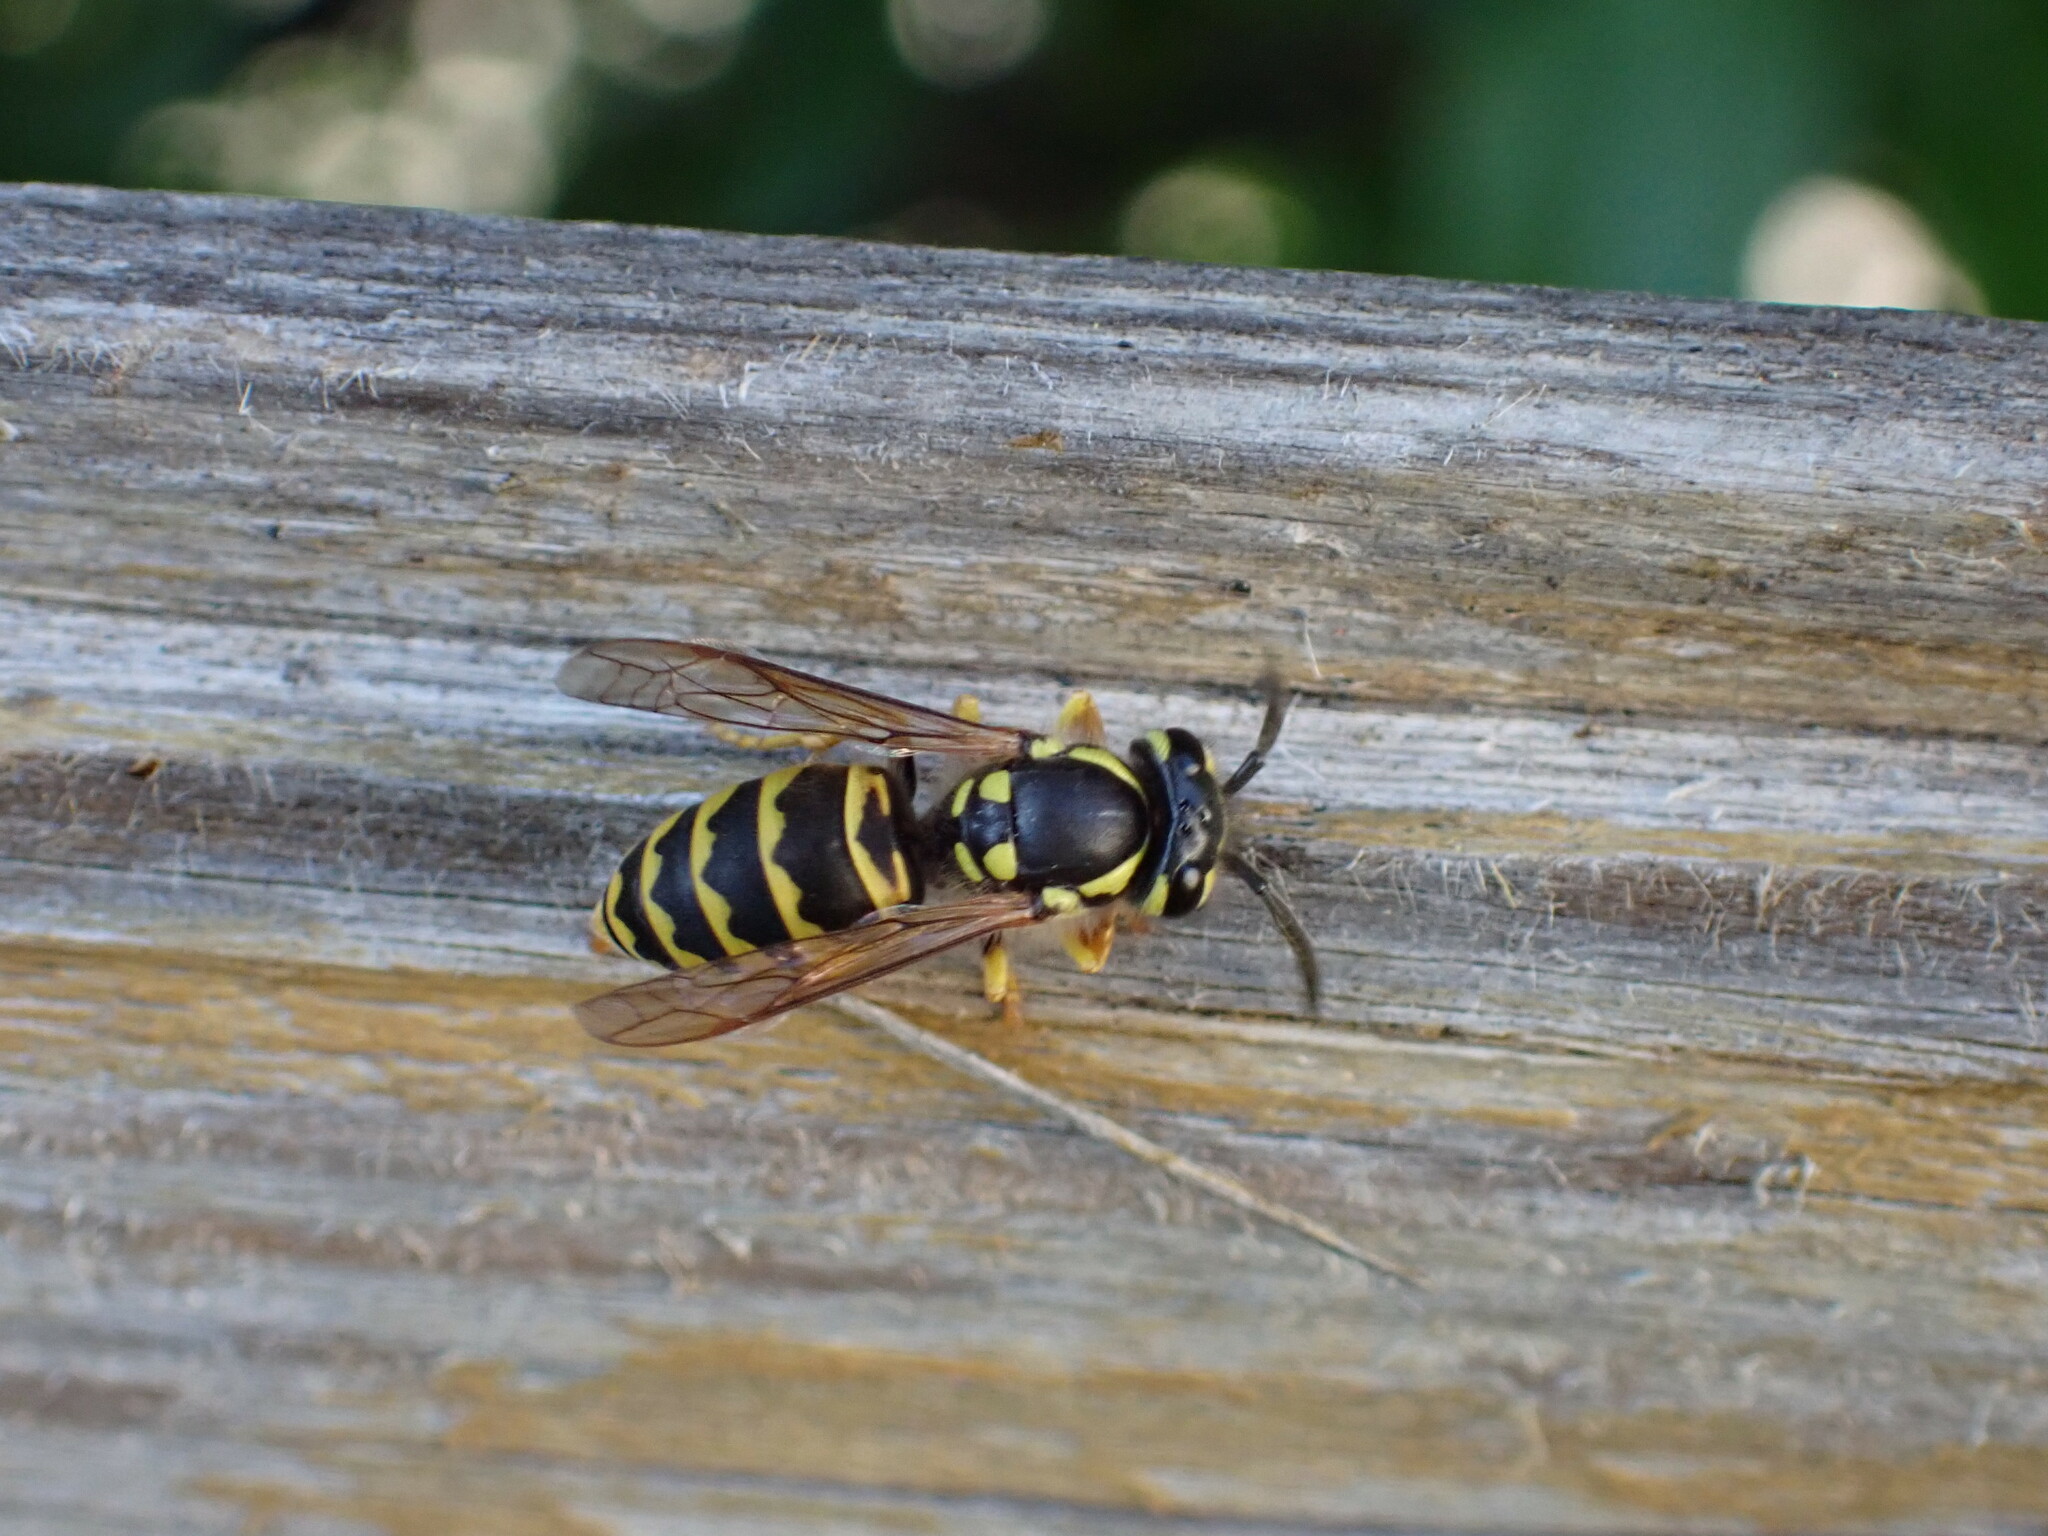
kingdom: Animalia
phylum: Arthropoda
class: Insecta
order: Hymenoptera
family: Vespidae
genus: Vespula
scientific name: Vespula germanica
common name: German wasp
